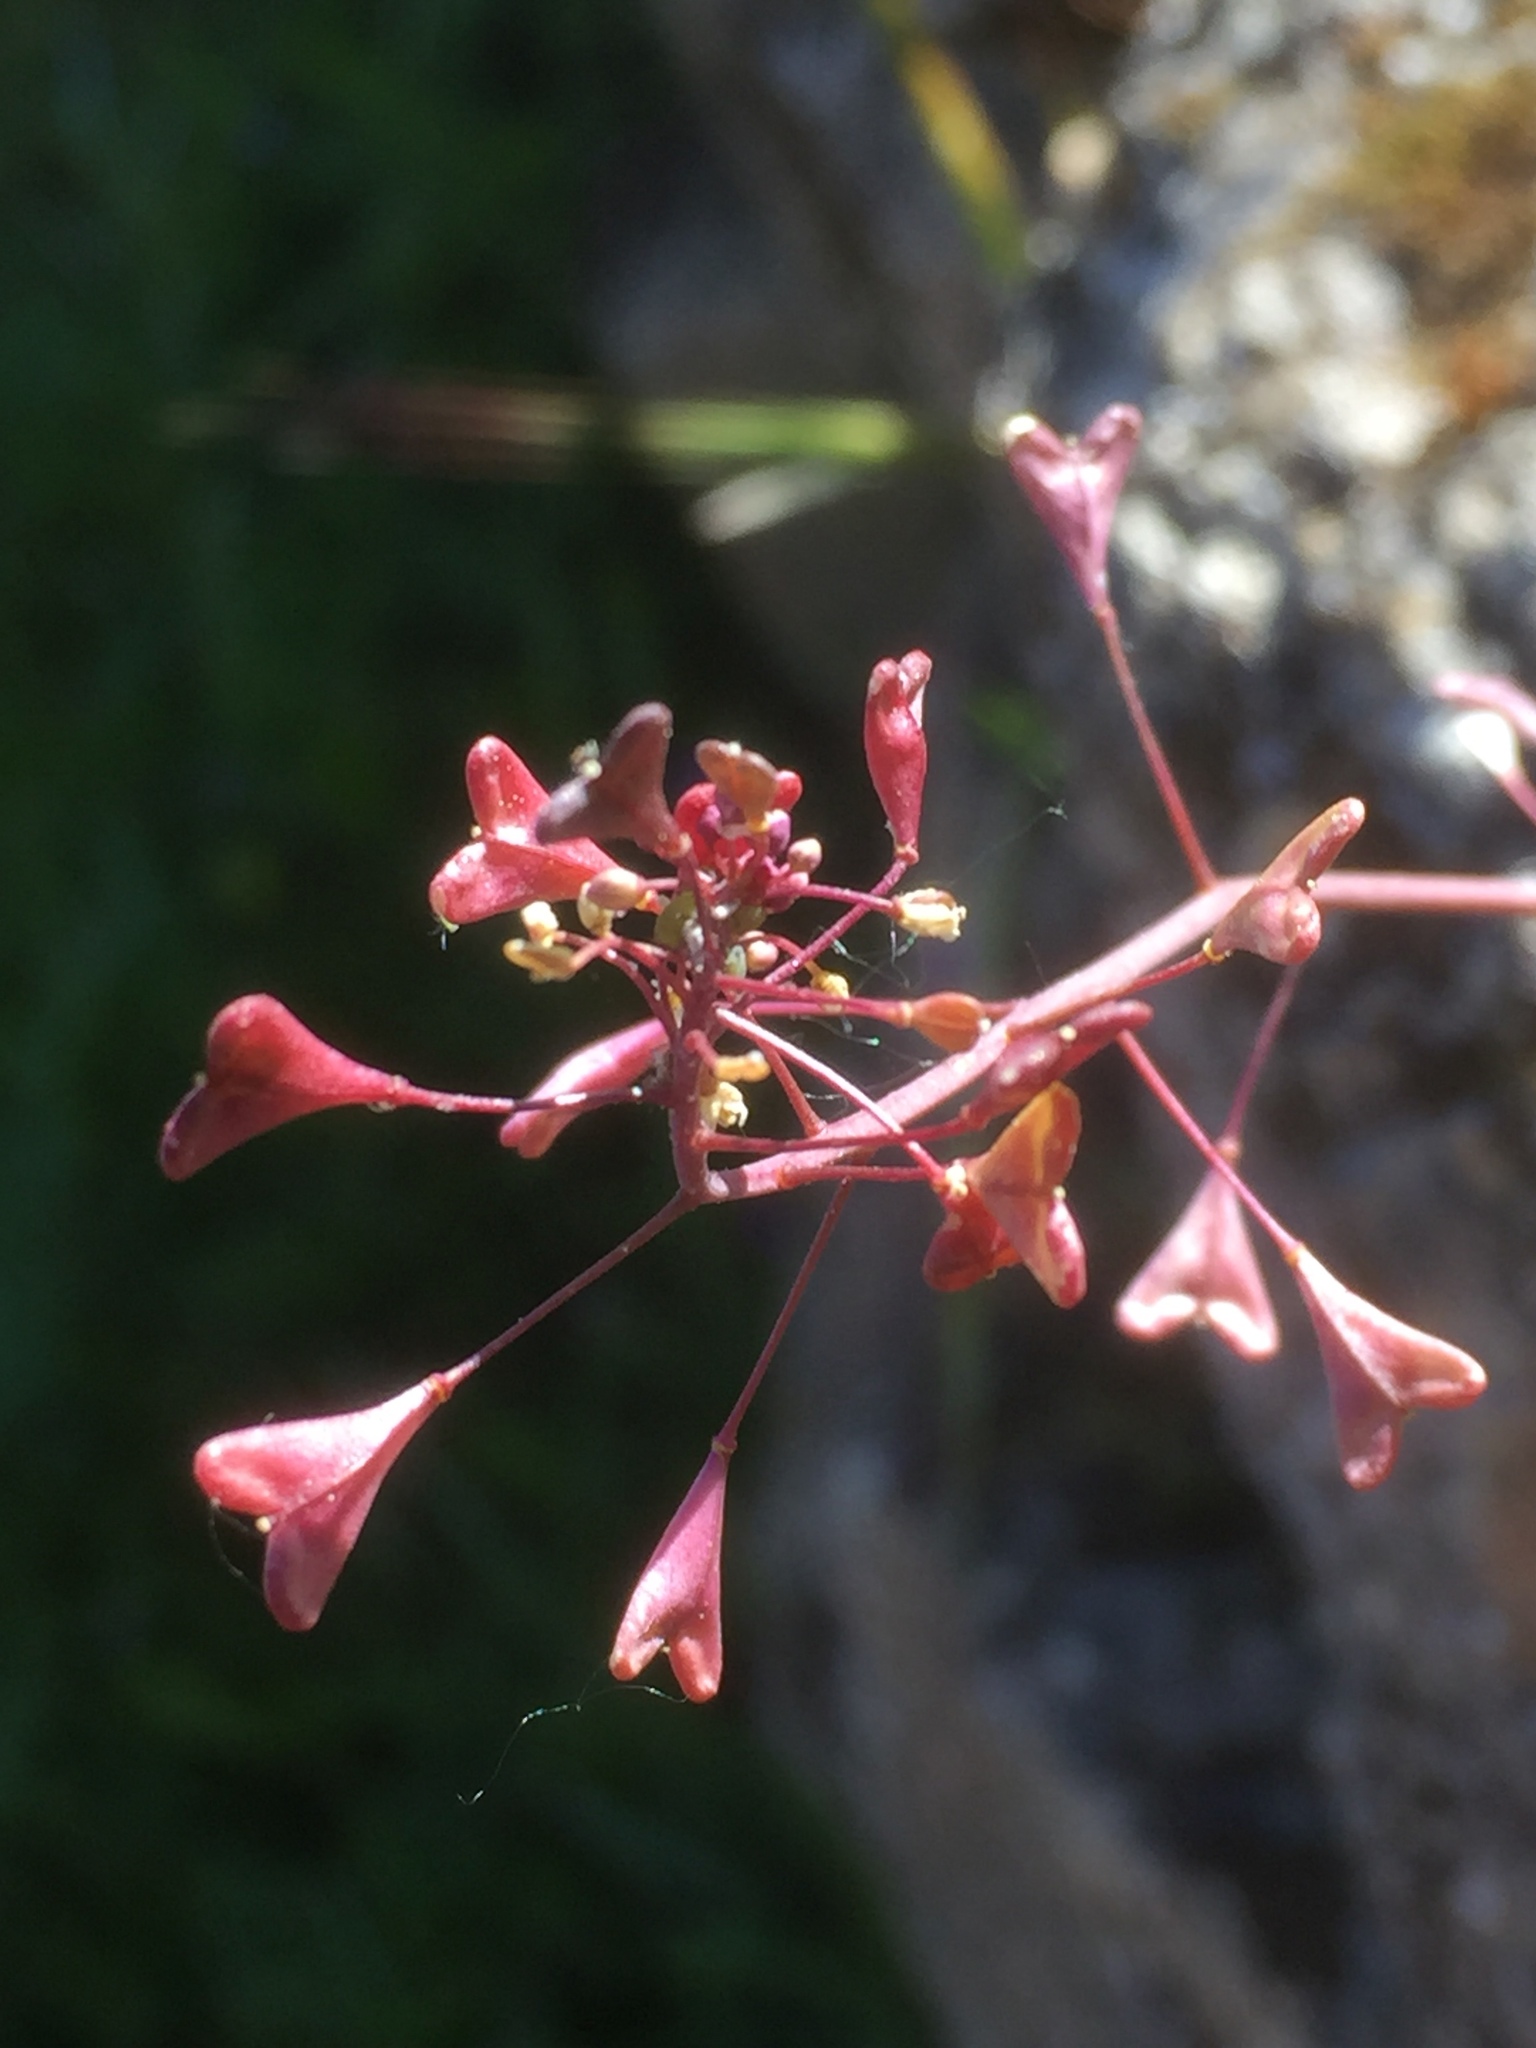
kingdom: Plantae
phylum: Tracheophyta
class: Magnoliopsida
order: Brassicales
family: Brassicaceae
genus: Capsella
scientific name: Capsella rubella
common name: Pink shepherd's-purse
